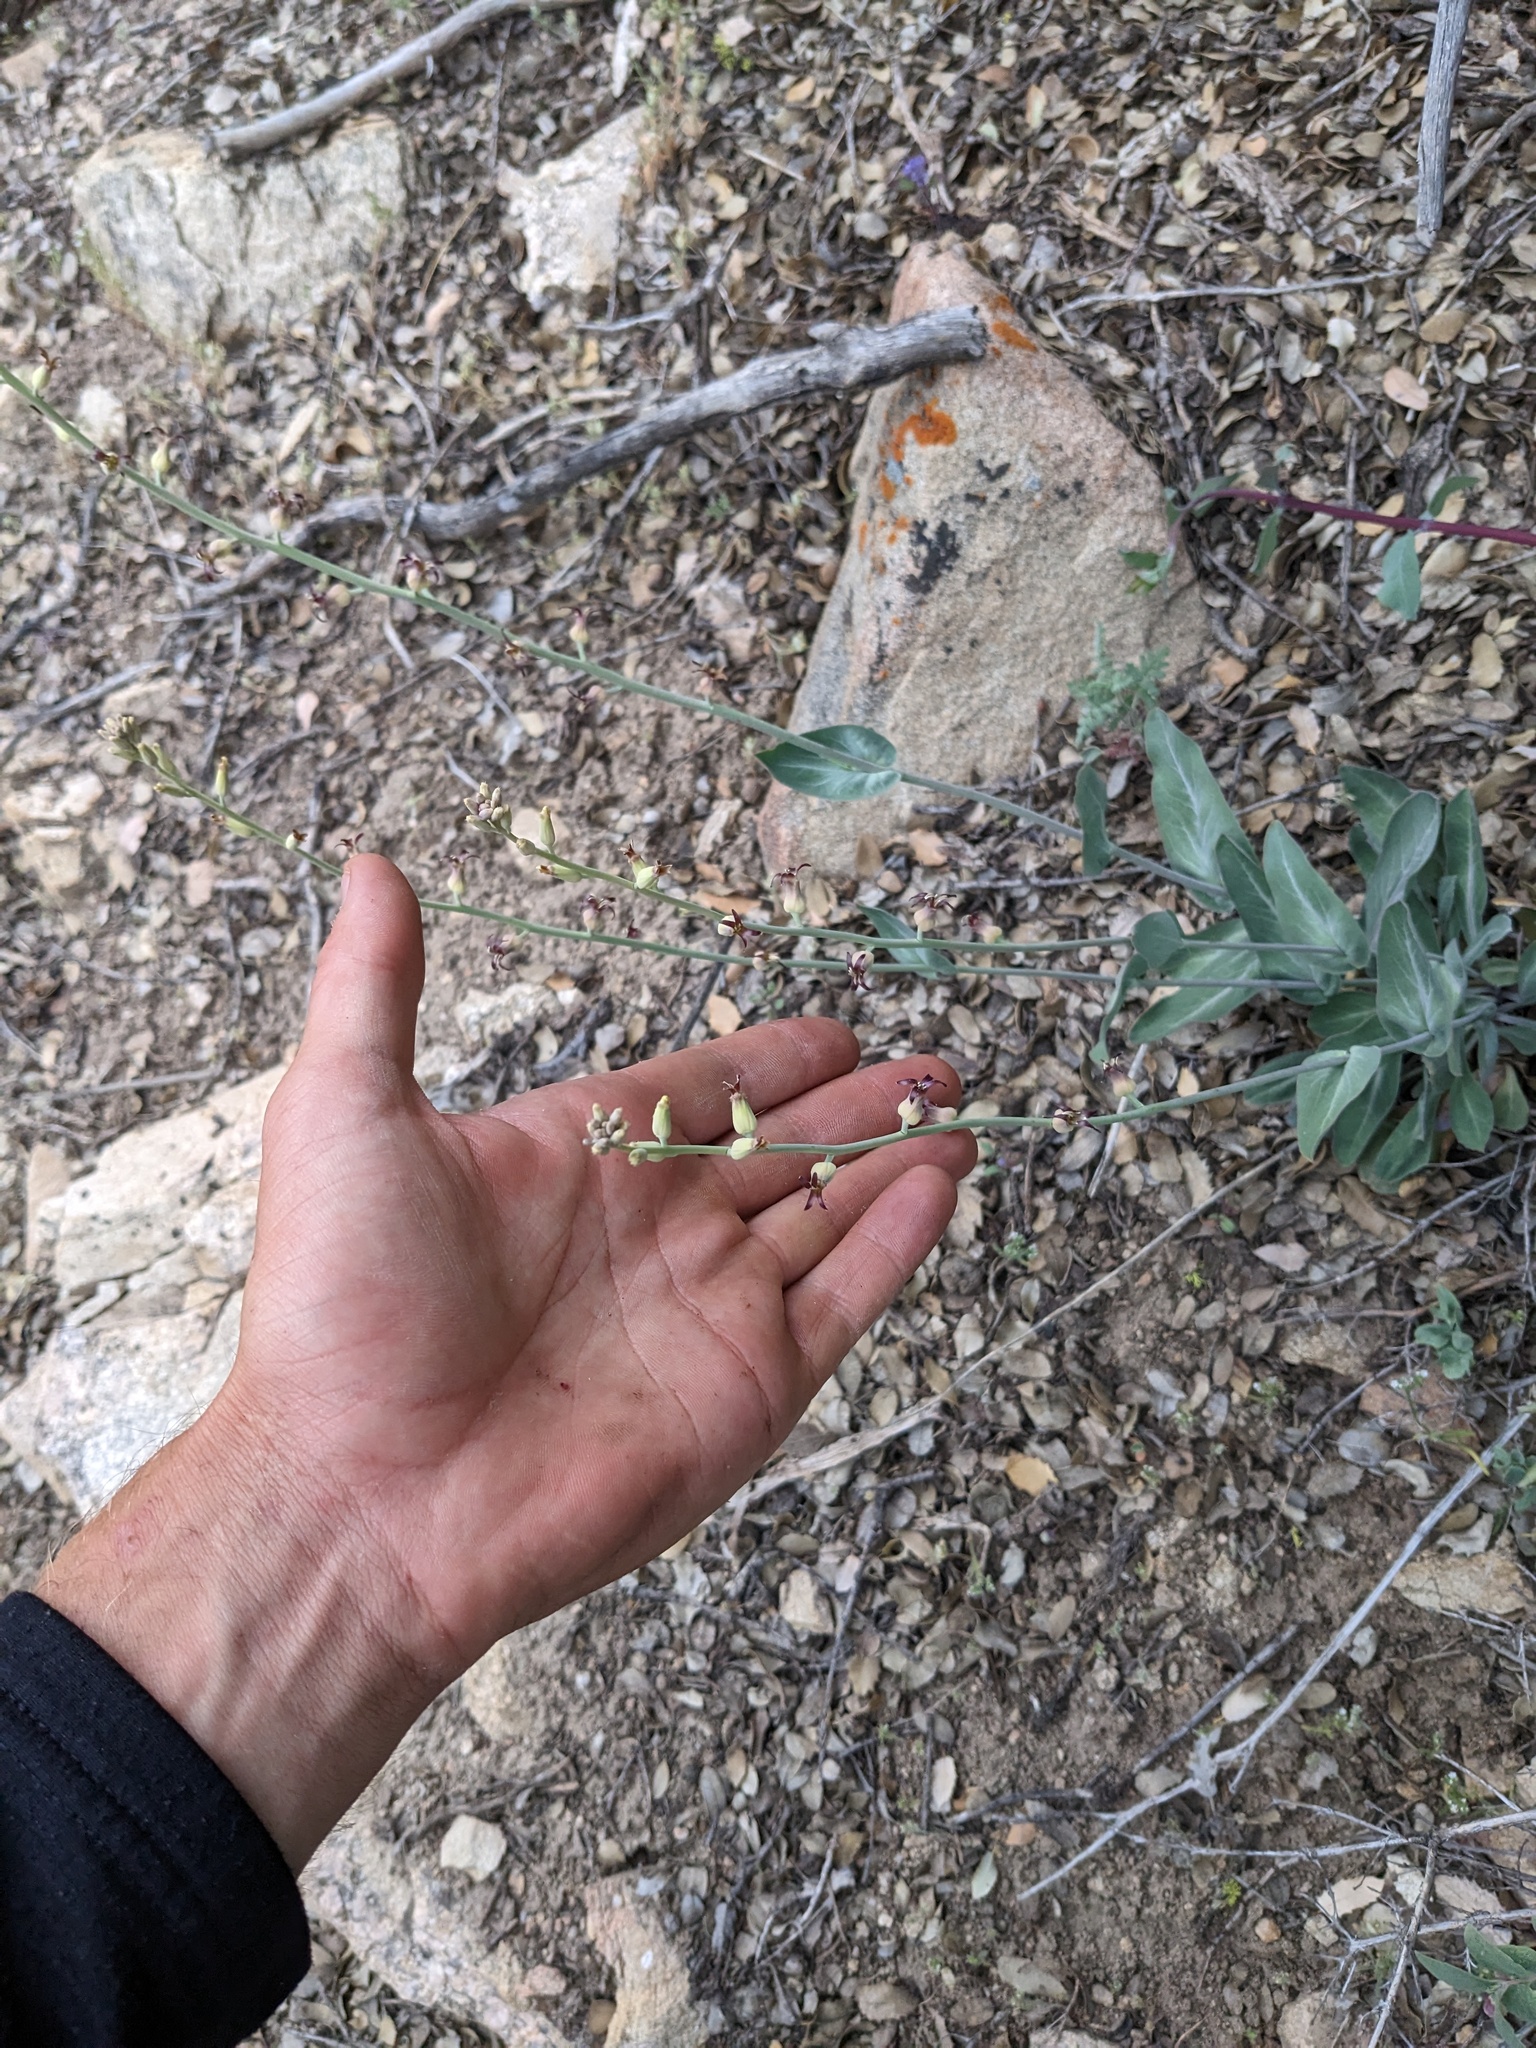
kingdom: Plantae
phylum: Tracheophyta
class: Magnoliopsida
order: Brassicales
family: Brassicaceae
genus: Streptanthus
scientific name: Streptanthus cordatus
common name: Heart-leaf jewel-flower
